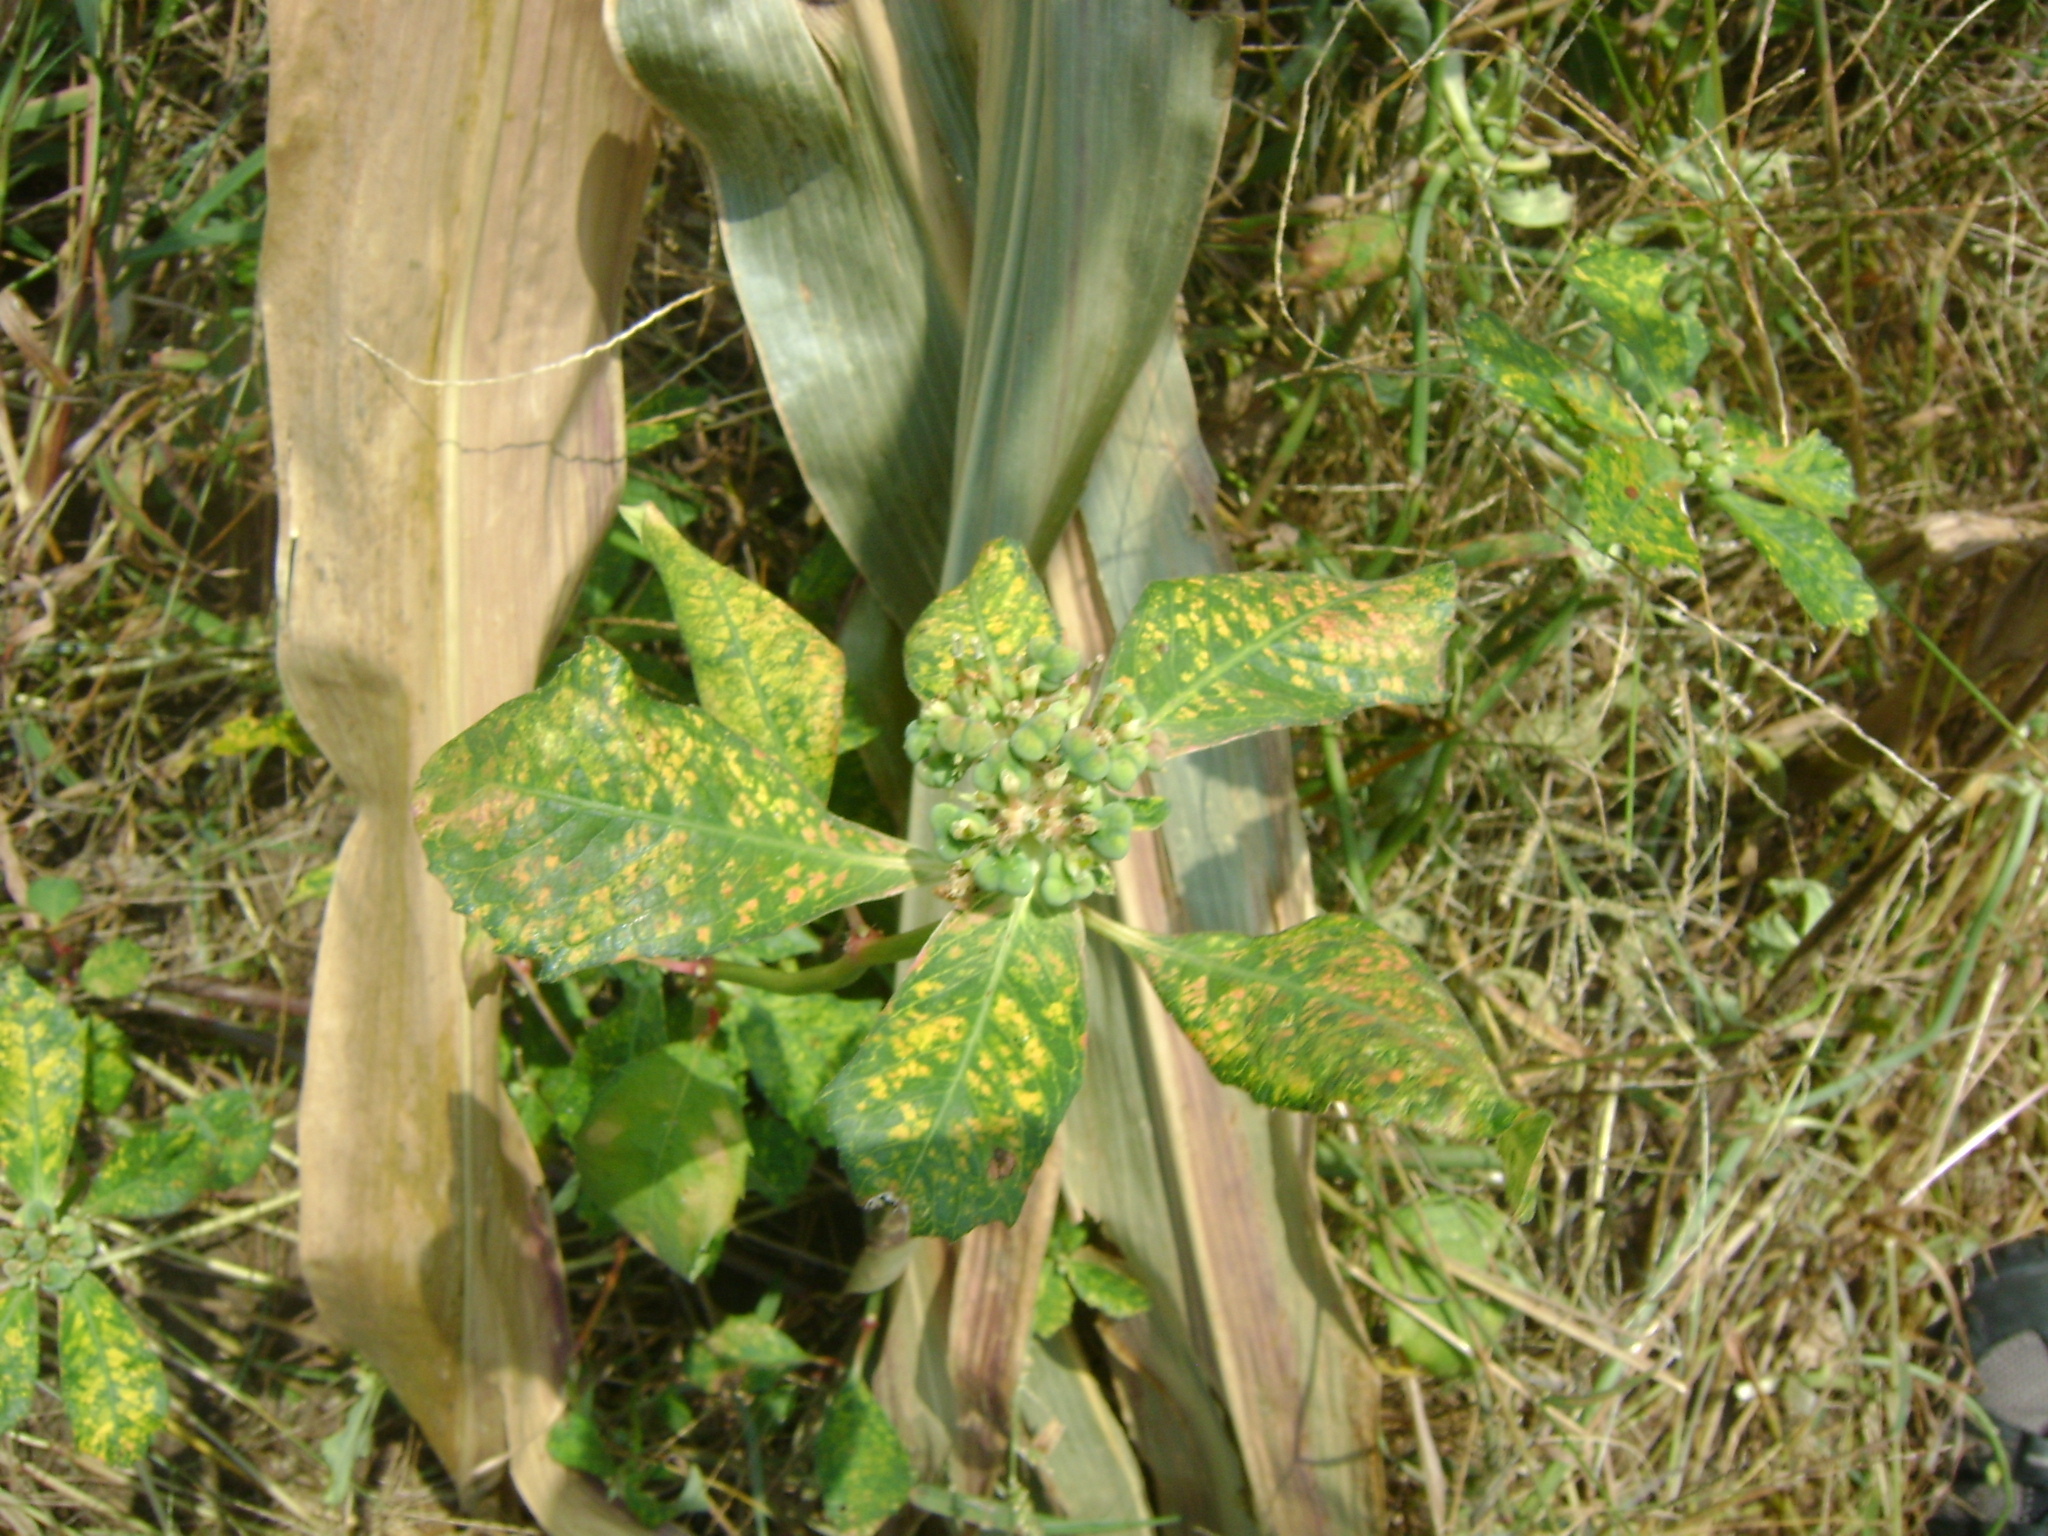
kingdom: Plantae
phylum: Tracheophyta
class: Magnoliopsida
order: Malpighiales
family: Euphorbiaceae
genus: Euphorbia
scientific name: Euphorbia heterophylla
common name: Mexican fireplant
